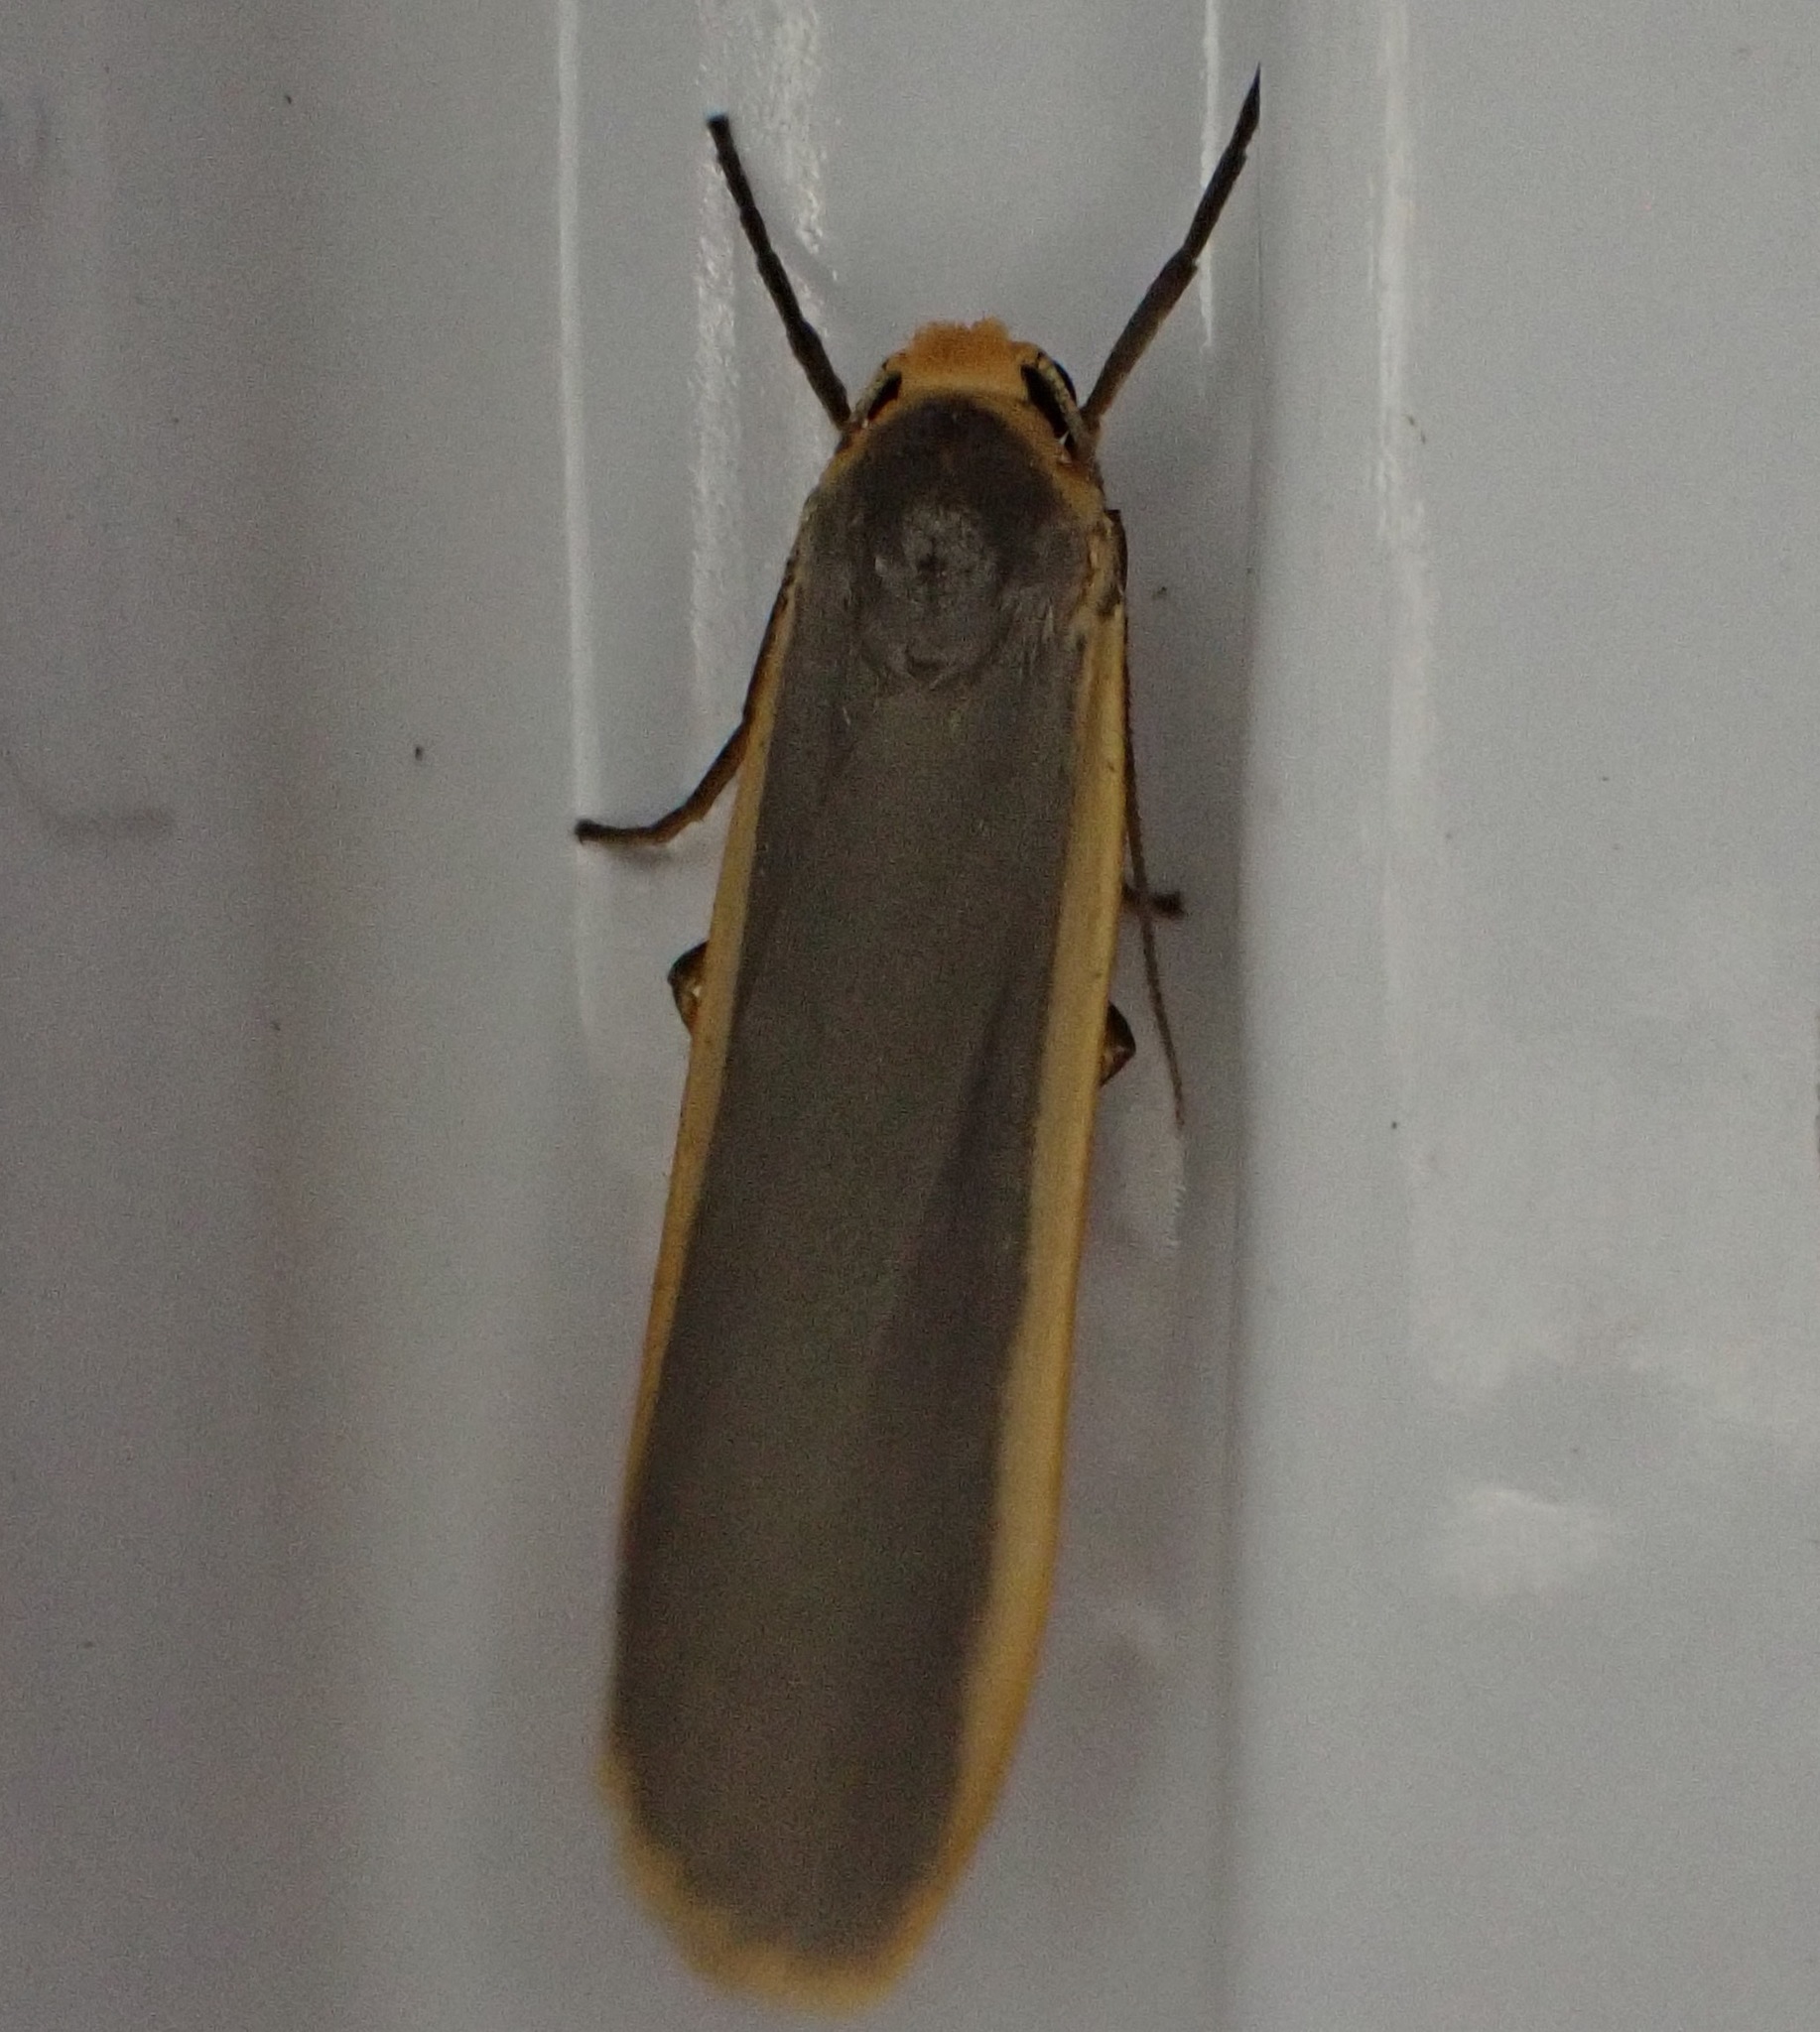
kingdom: Animalia
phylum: Arthropoda
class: Insecta
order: Lepidoptera
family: Erebidae
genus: Nyea
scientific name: Nyea lurideola
